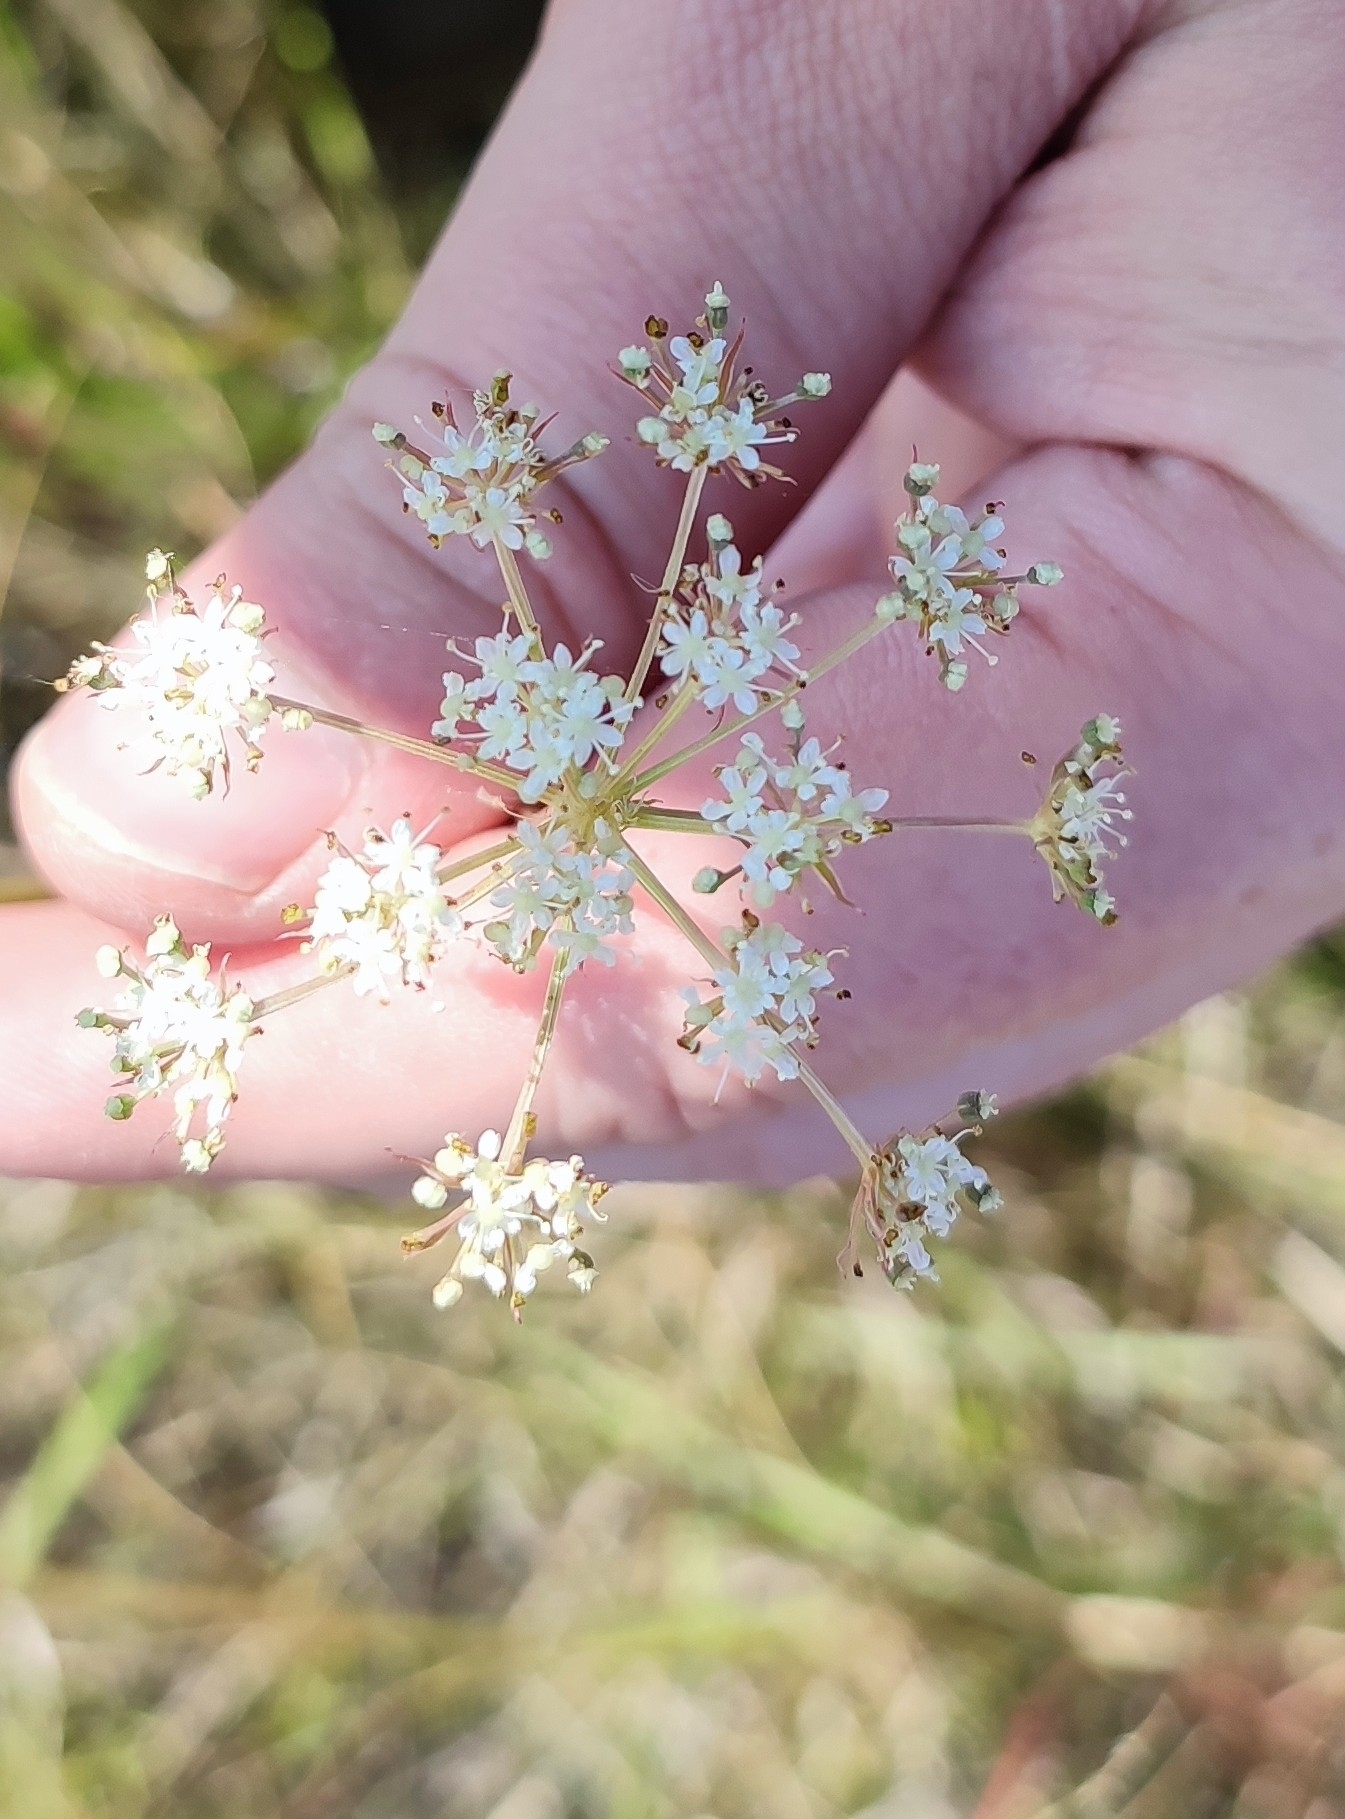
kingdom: Plantae
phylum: Tracheophyta
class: Magnoliopsida
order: Apiales
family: Apiaceae
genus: Cenolophium
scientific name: Cenolophium fischeri
